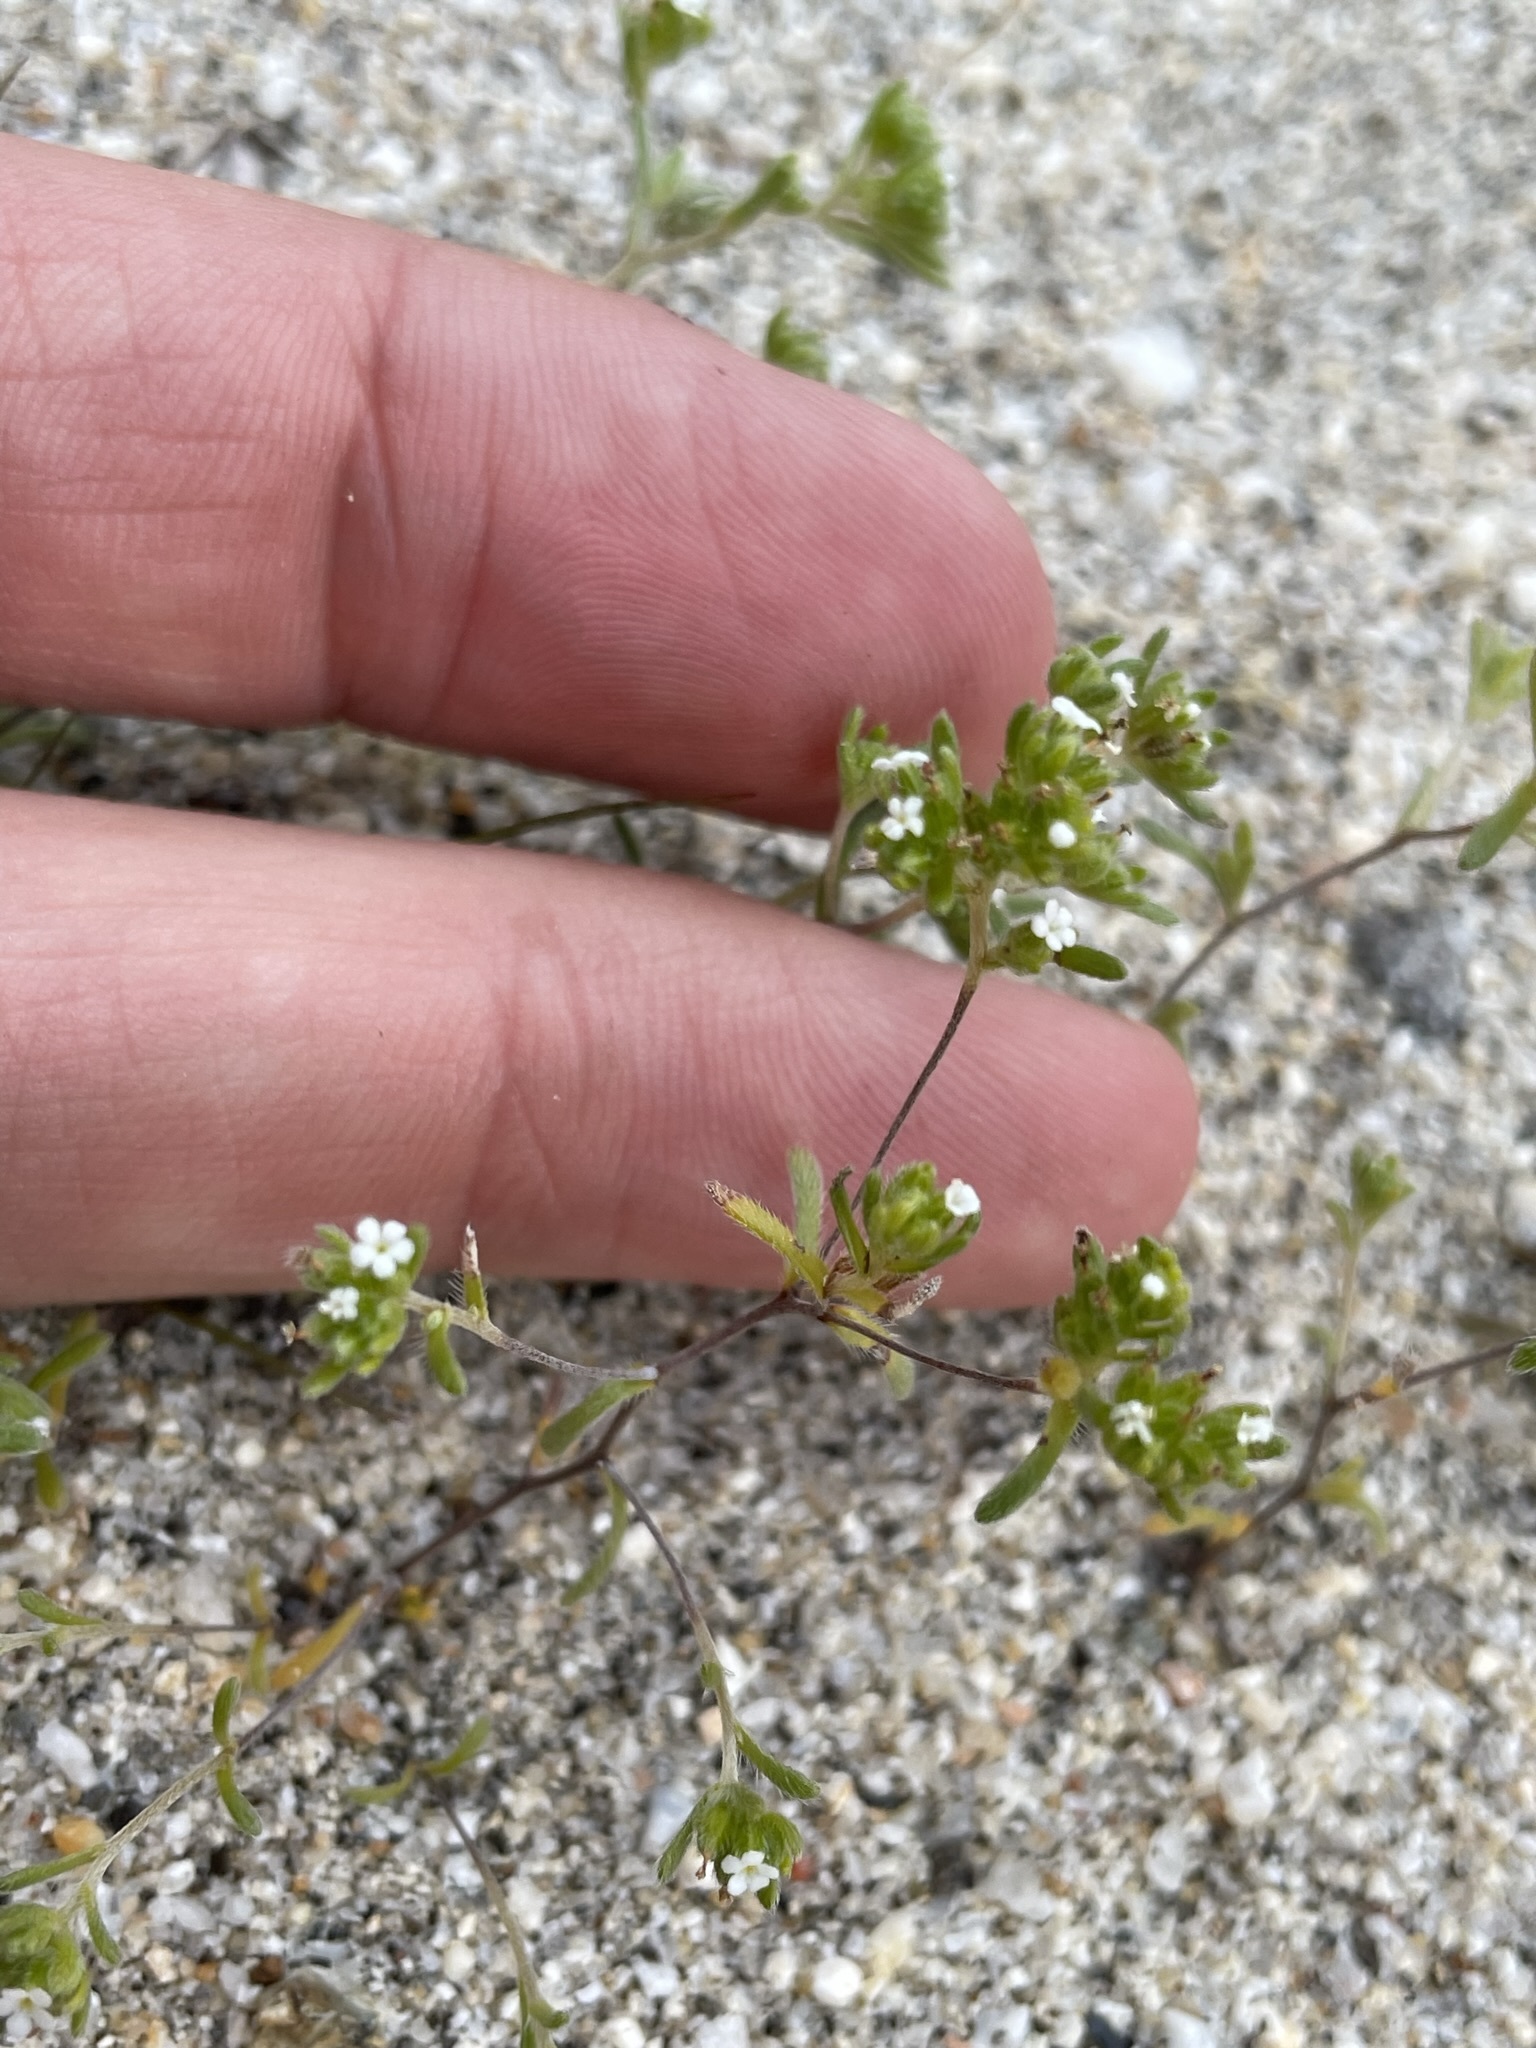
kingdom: Plantae
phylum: Tracheophyta
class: Magnoliopsida
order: Boraginales
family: Boraginaceae
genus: Eremocarya
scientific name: Eremocarya micrantha
